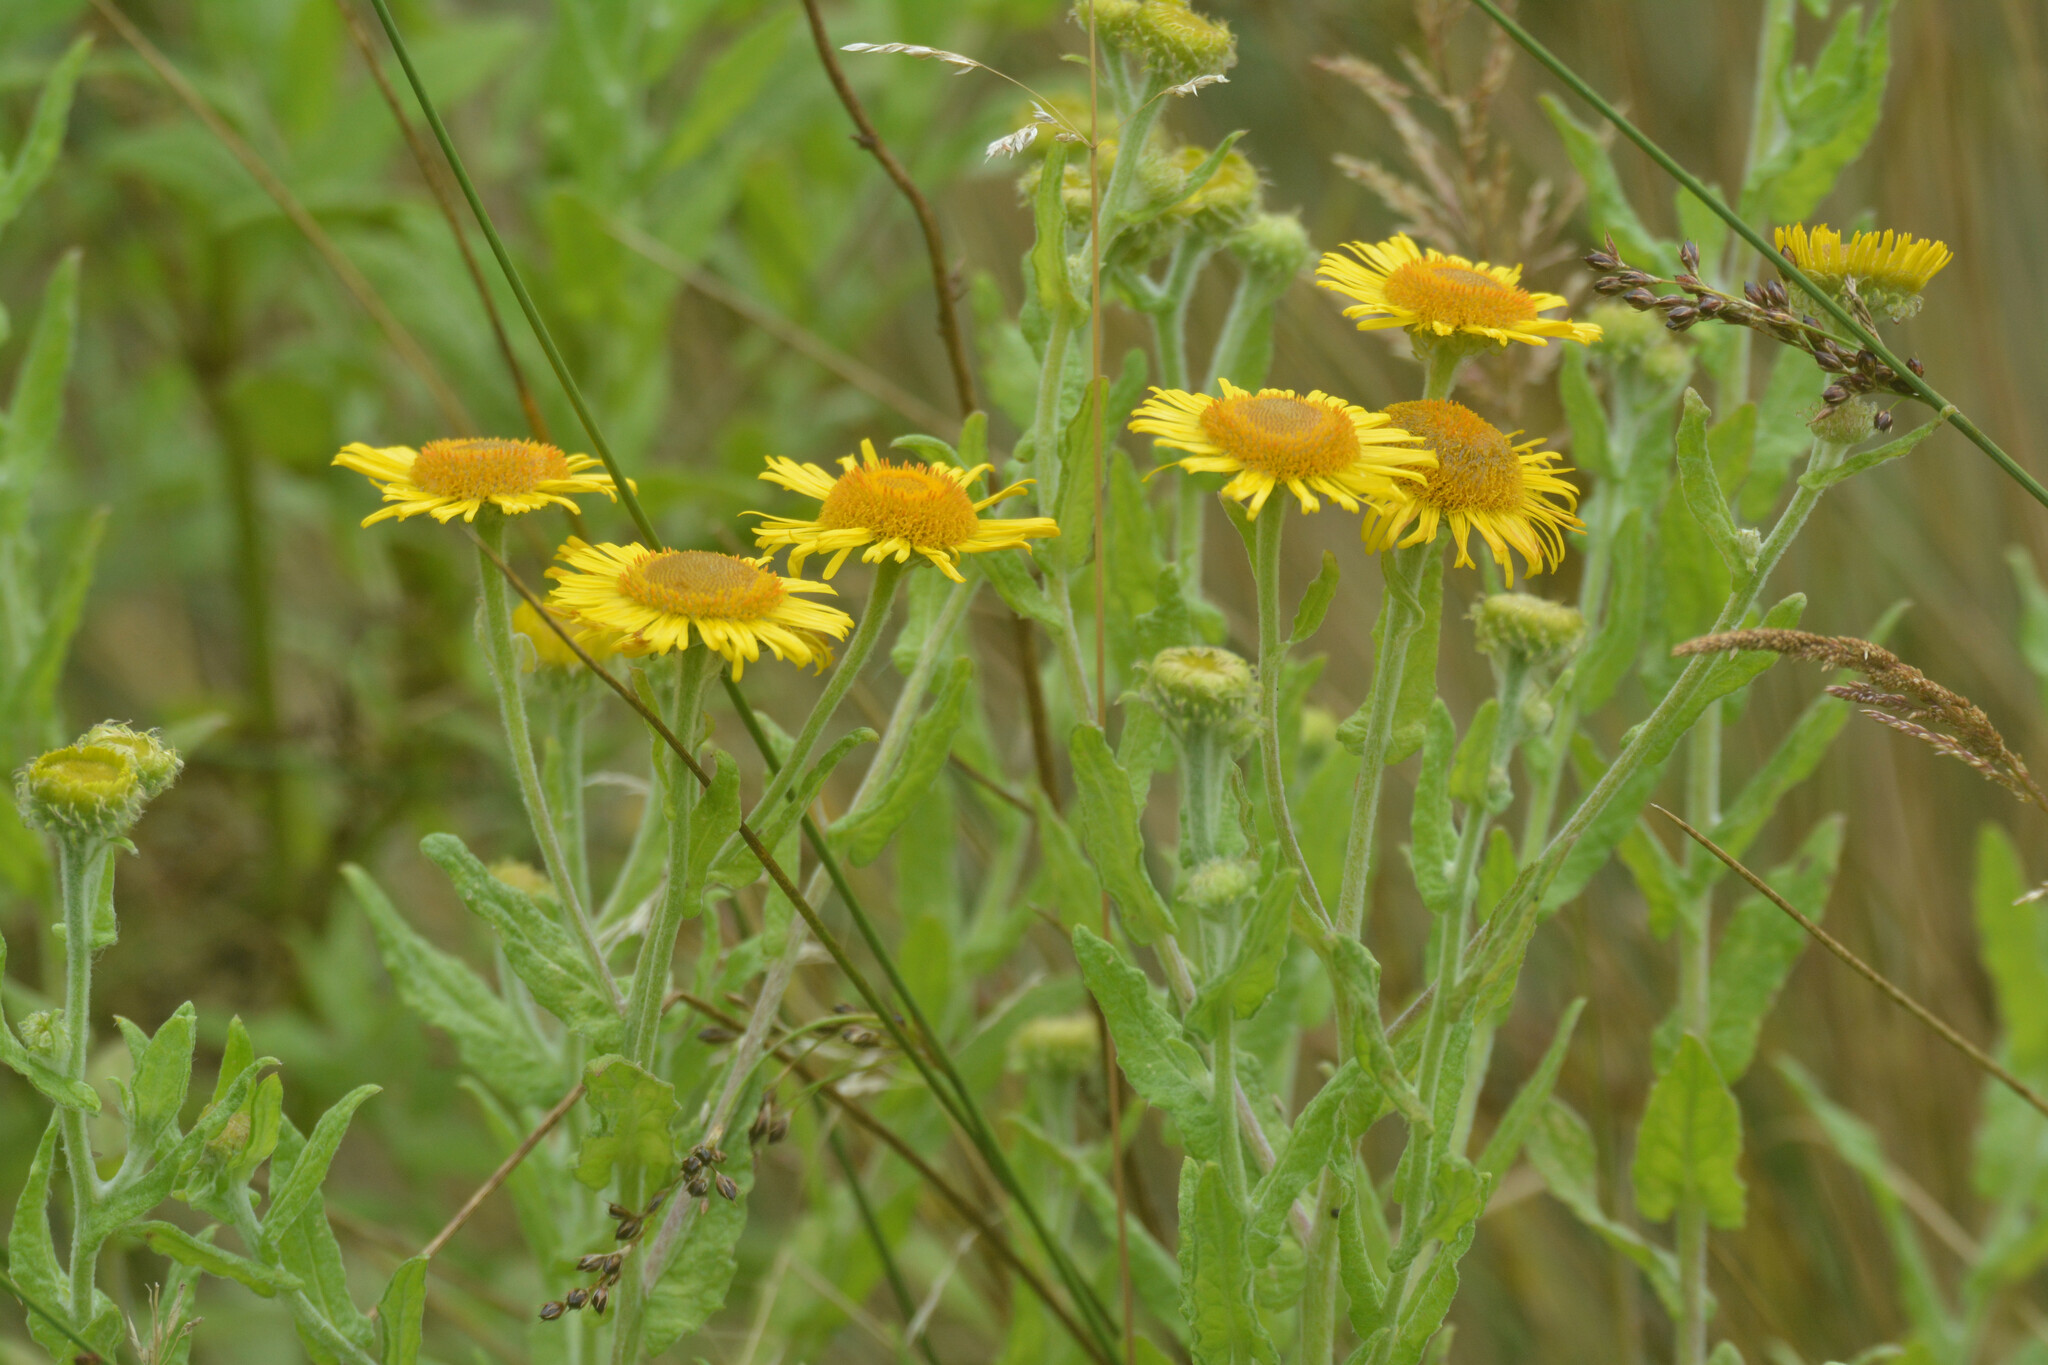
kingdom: Plantae
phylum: Tracheophyta
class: Magnoliopsida
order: Asterales
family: Asteraceae
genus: Pulicaria
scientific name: Pulicaria dysenterica
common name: Common fleabane
